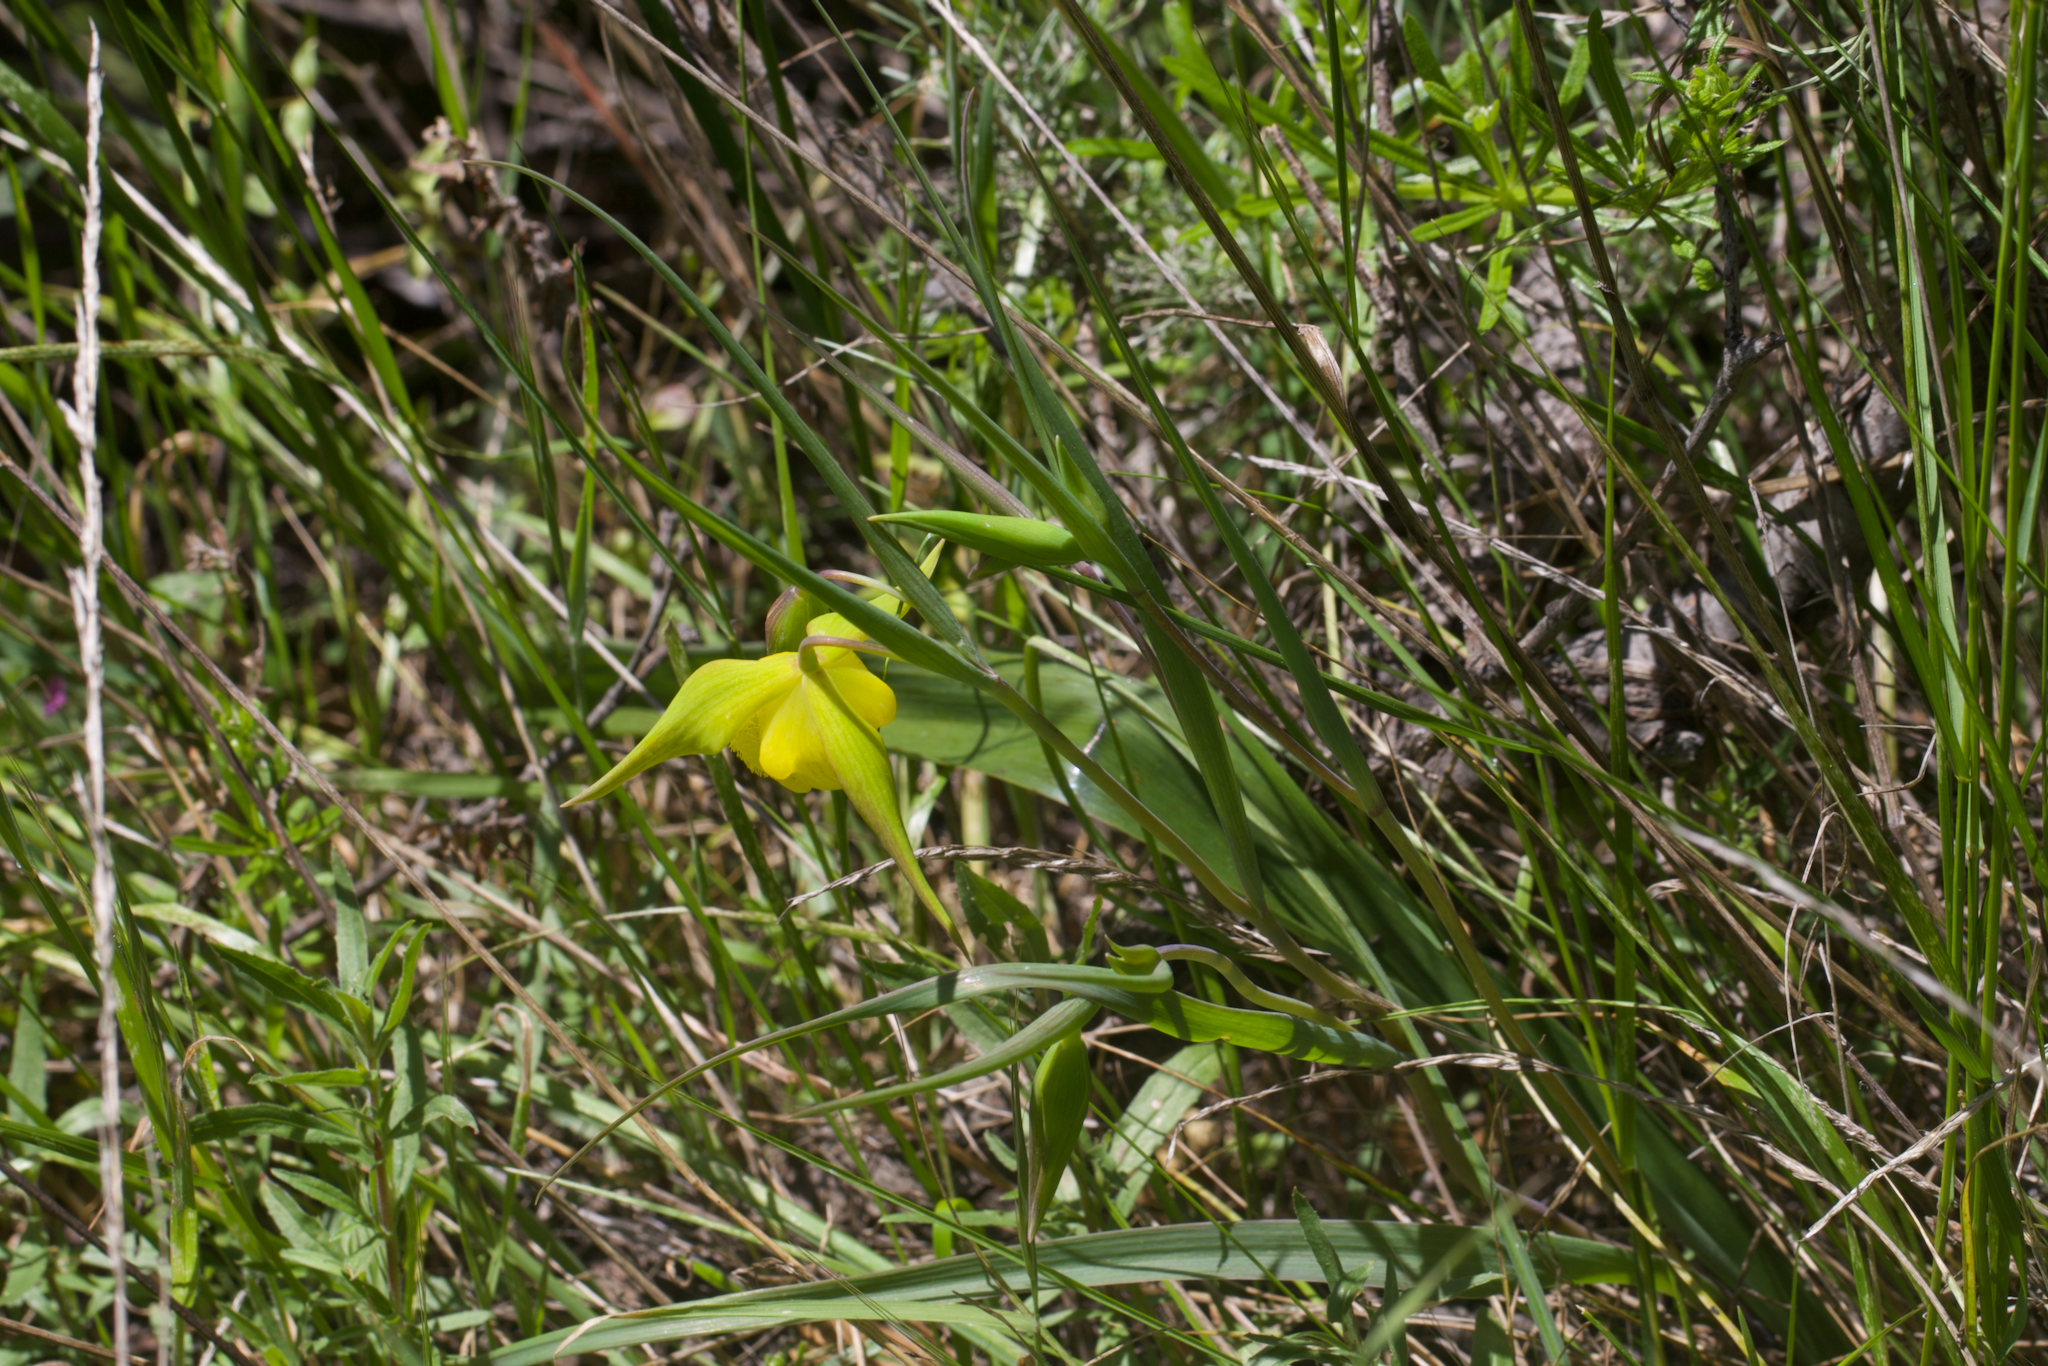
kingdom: Plantae
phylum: Tracheophyta
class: Liliopsida
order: Liliales
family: Liliaceae
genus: Calochortus
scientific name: Calochortus pulchellus
